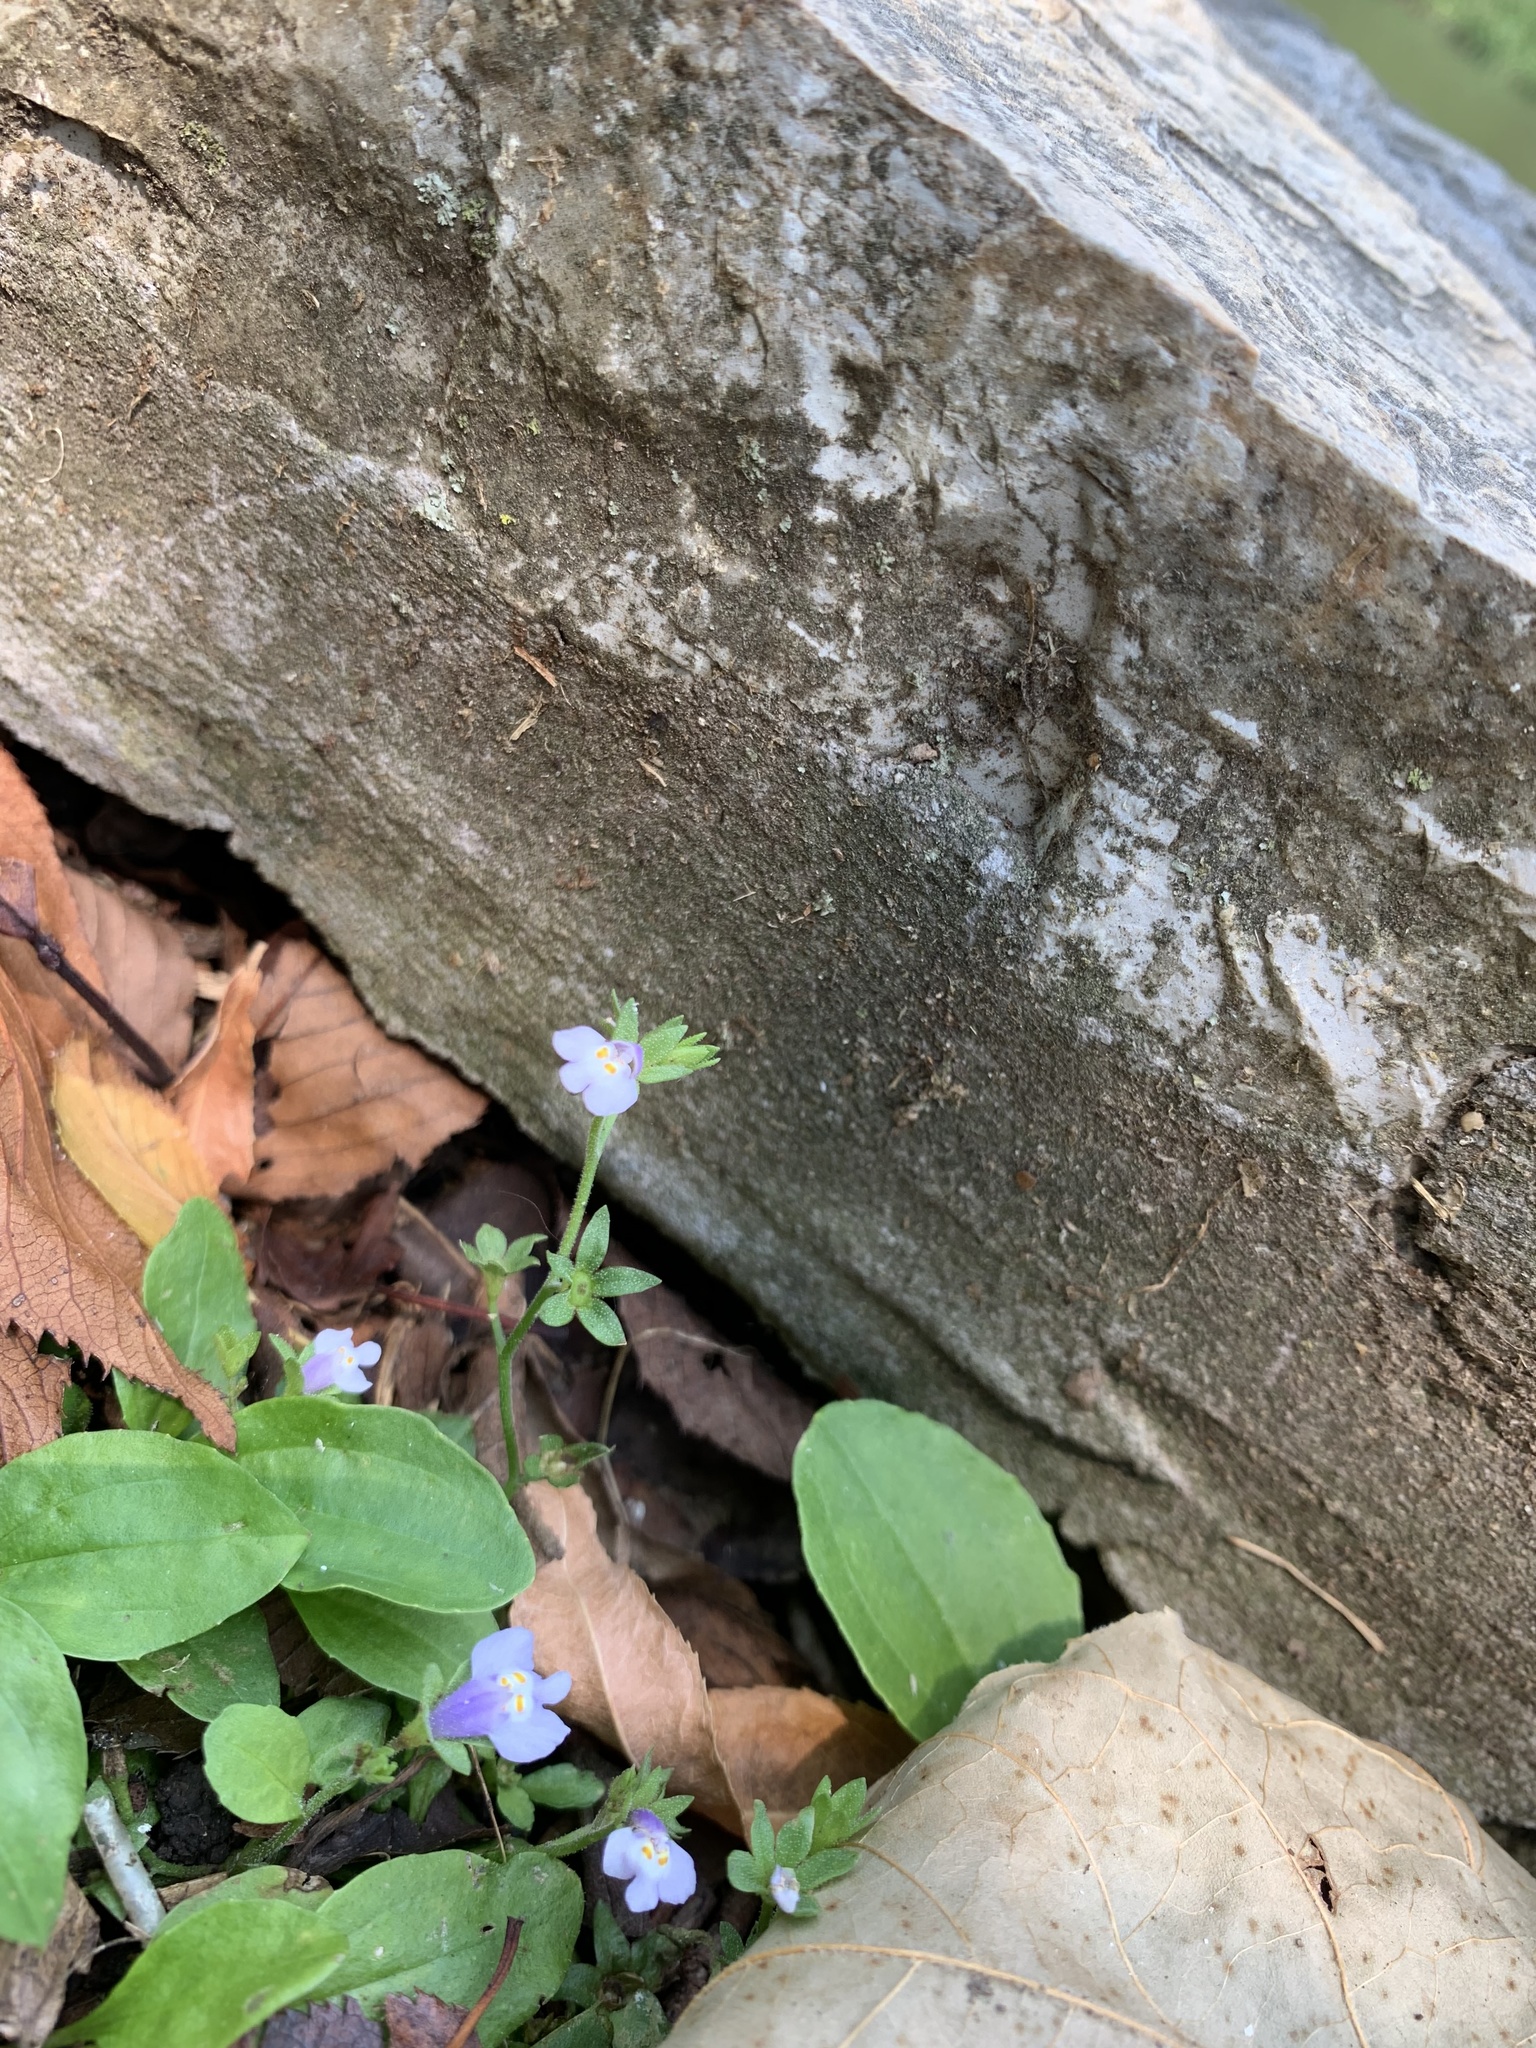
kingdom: Plantae
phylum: Tracheophyta
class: Magnoliopsida
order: Lamiales
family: Mazaceae
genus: Mazus
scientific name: Mazus pumilus
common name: Japanese mazus
